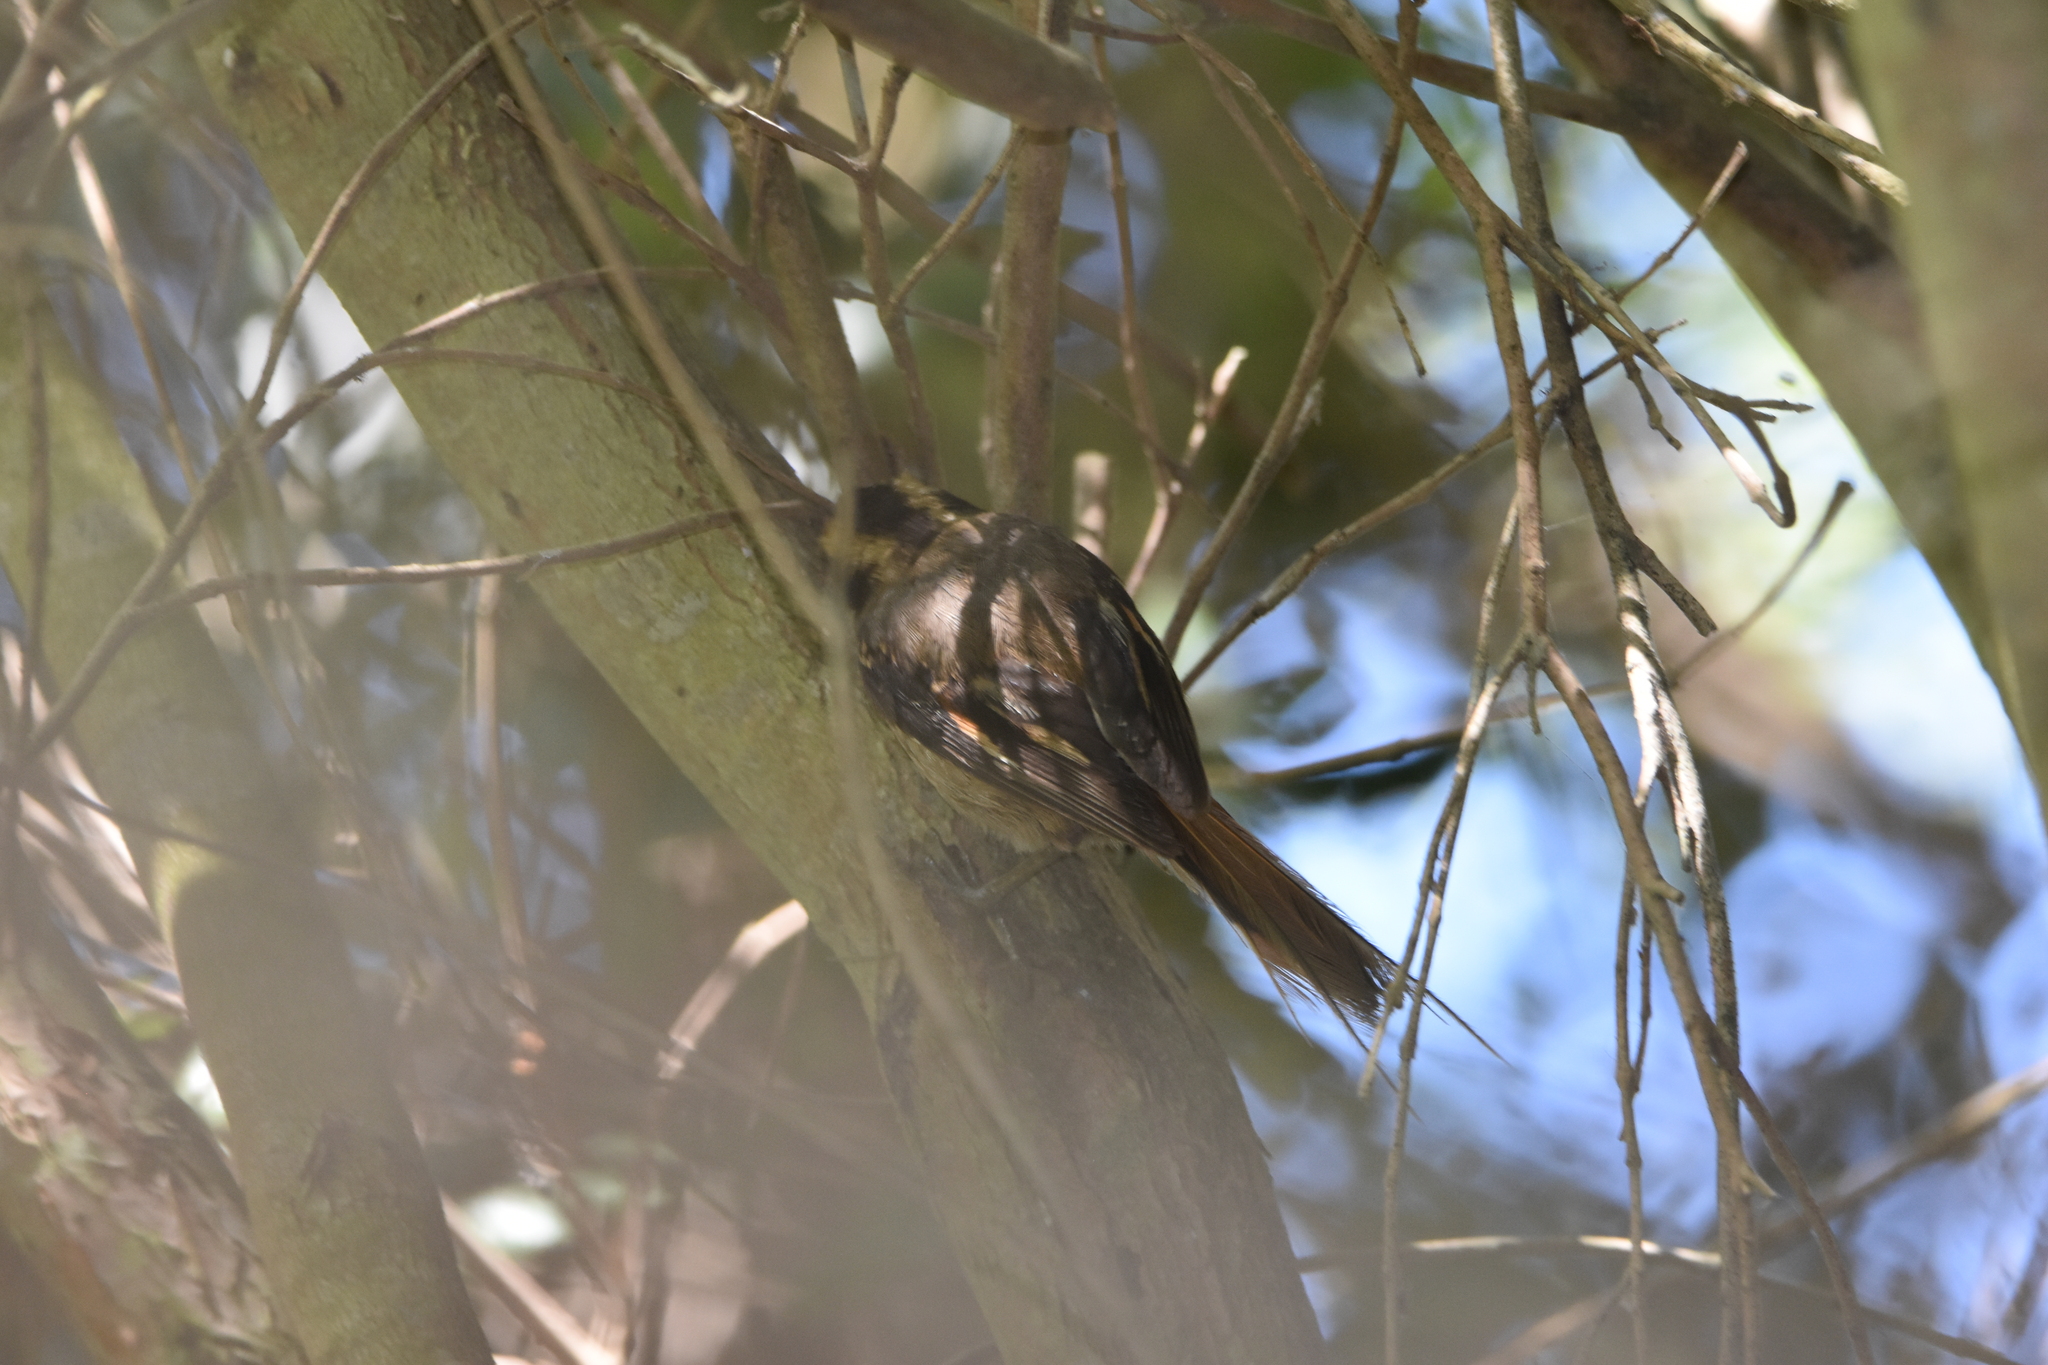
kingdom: Animalia
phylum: Chordata
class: Aves
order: Passeriformes
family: Furnariidae
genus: Aphrastura
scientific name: Aphrastura spinicauda
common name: Thorn-tailed rayadito
